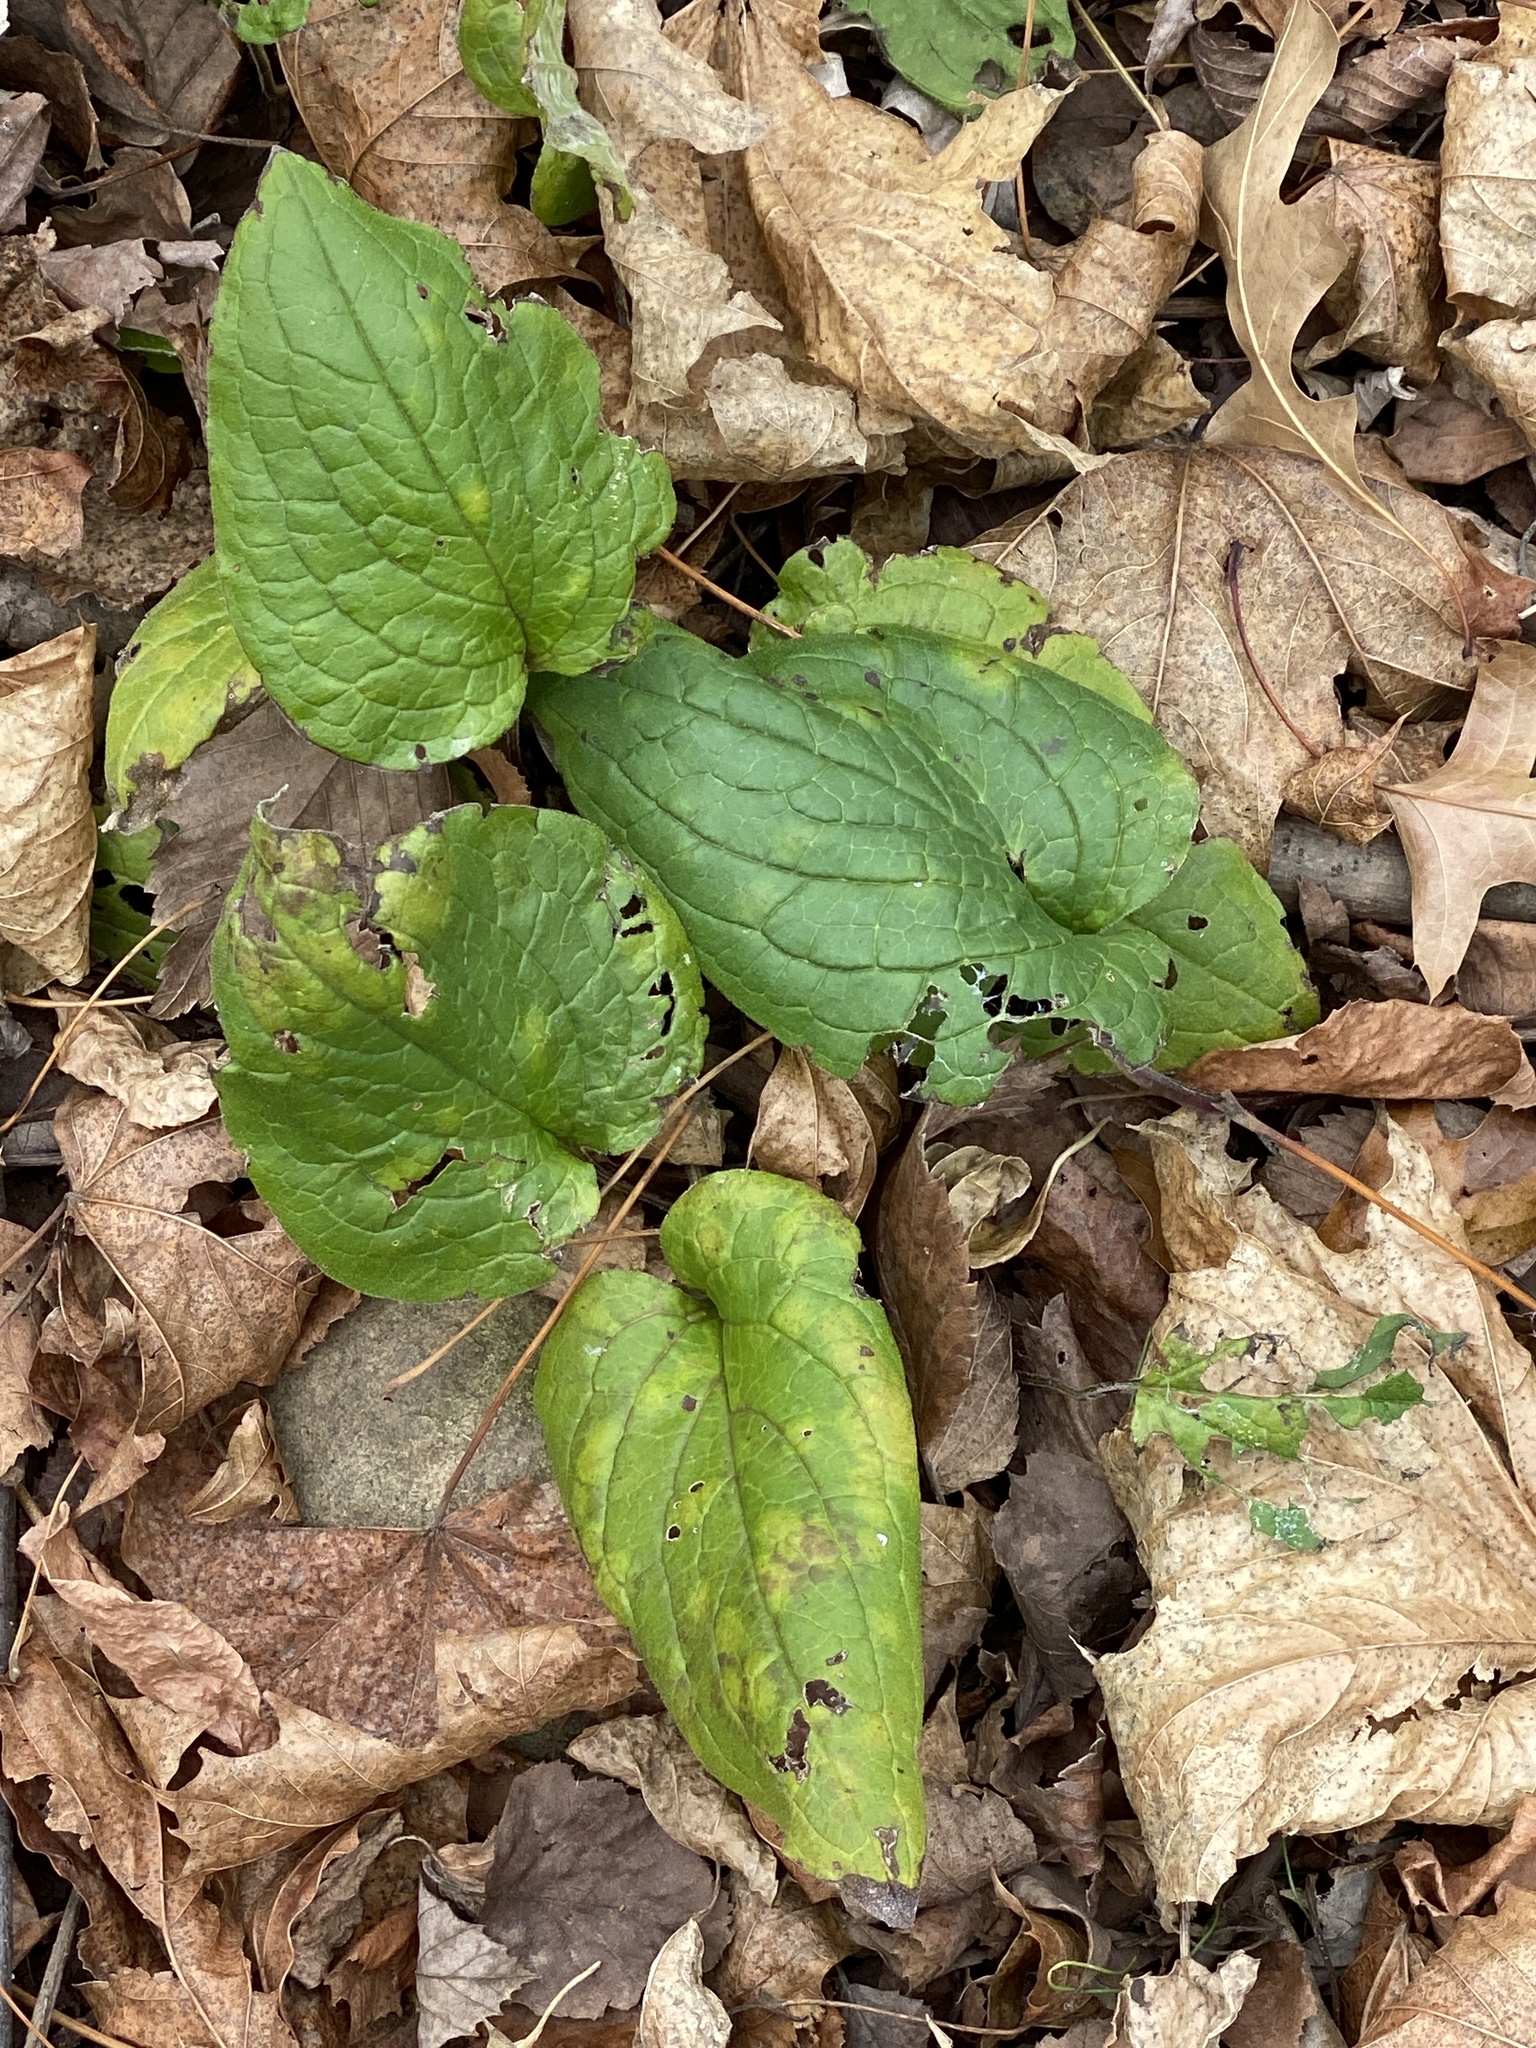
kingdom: Plantae
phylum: Tracheophyta
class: Magnoliopsida
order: Boraginales
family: Boraginaceae
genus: Hackelia
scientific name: Hackelia virginiana
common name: Beggar's-lice
